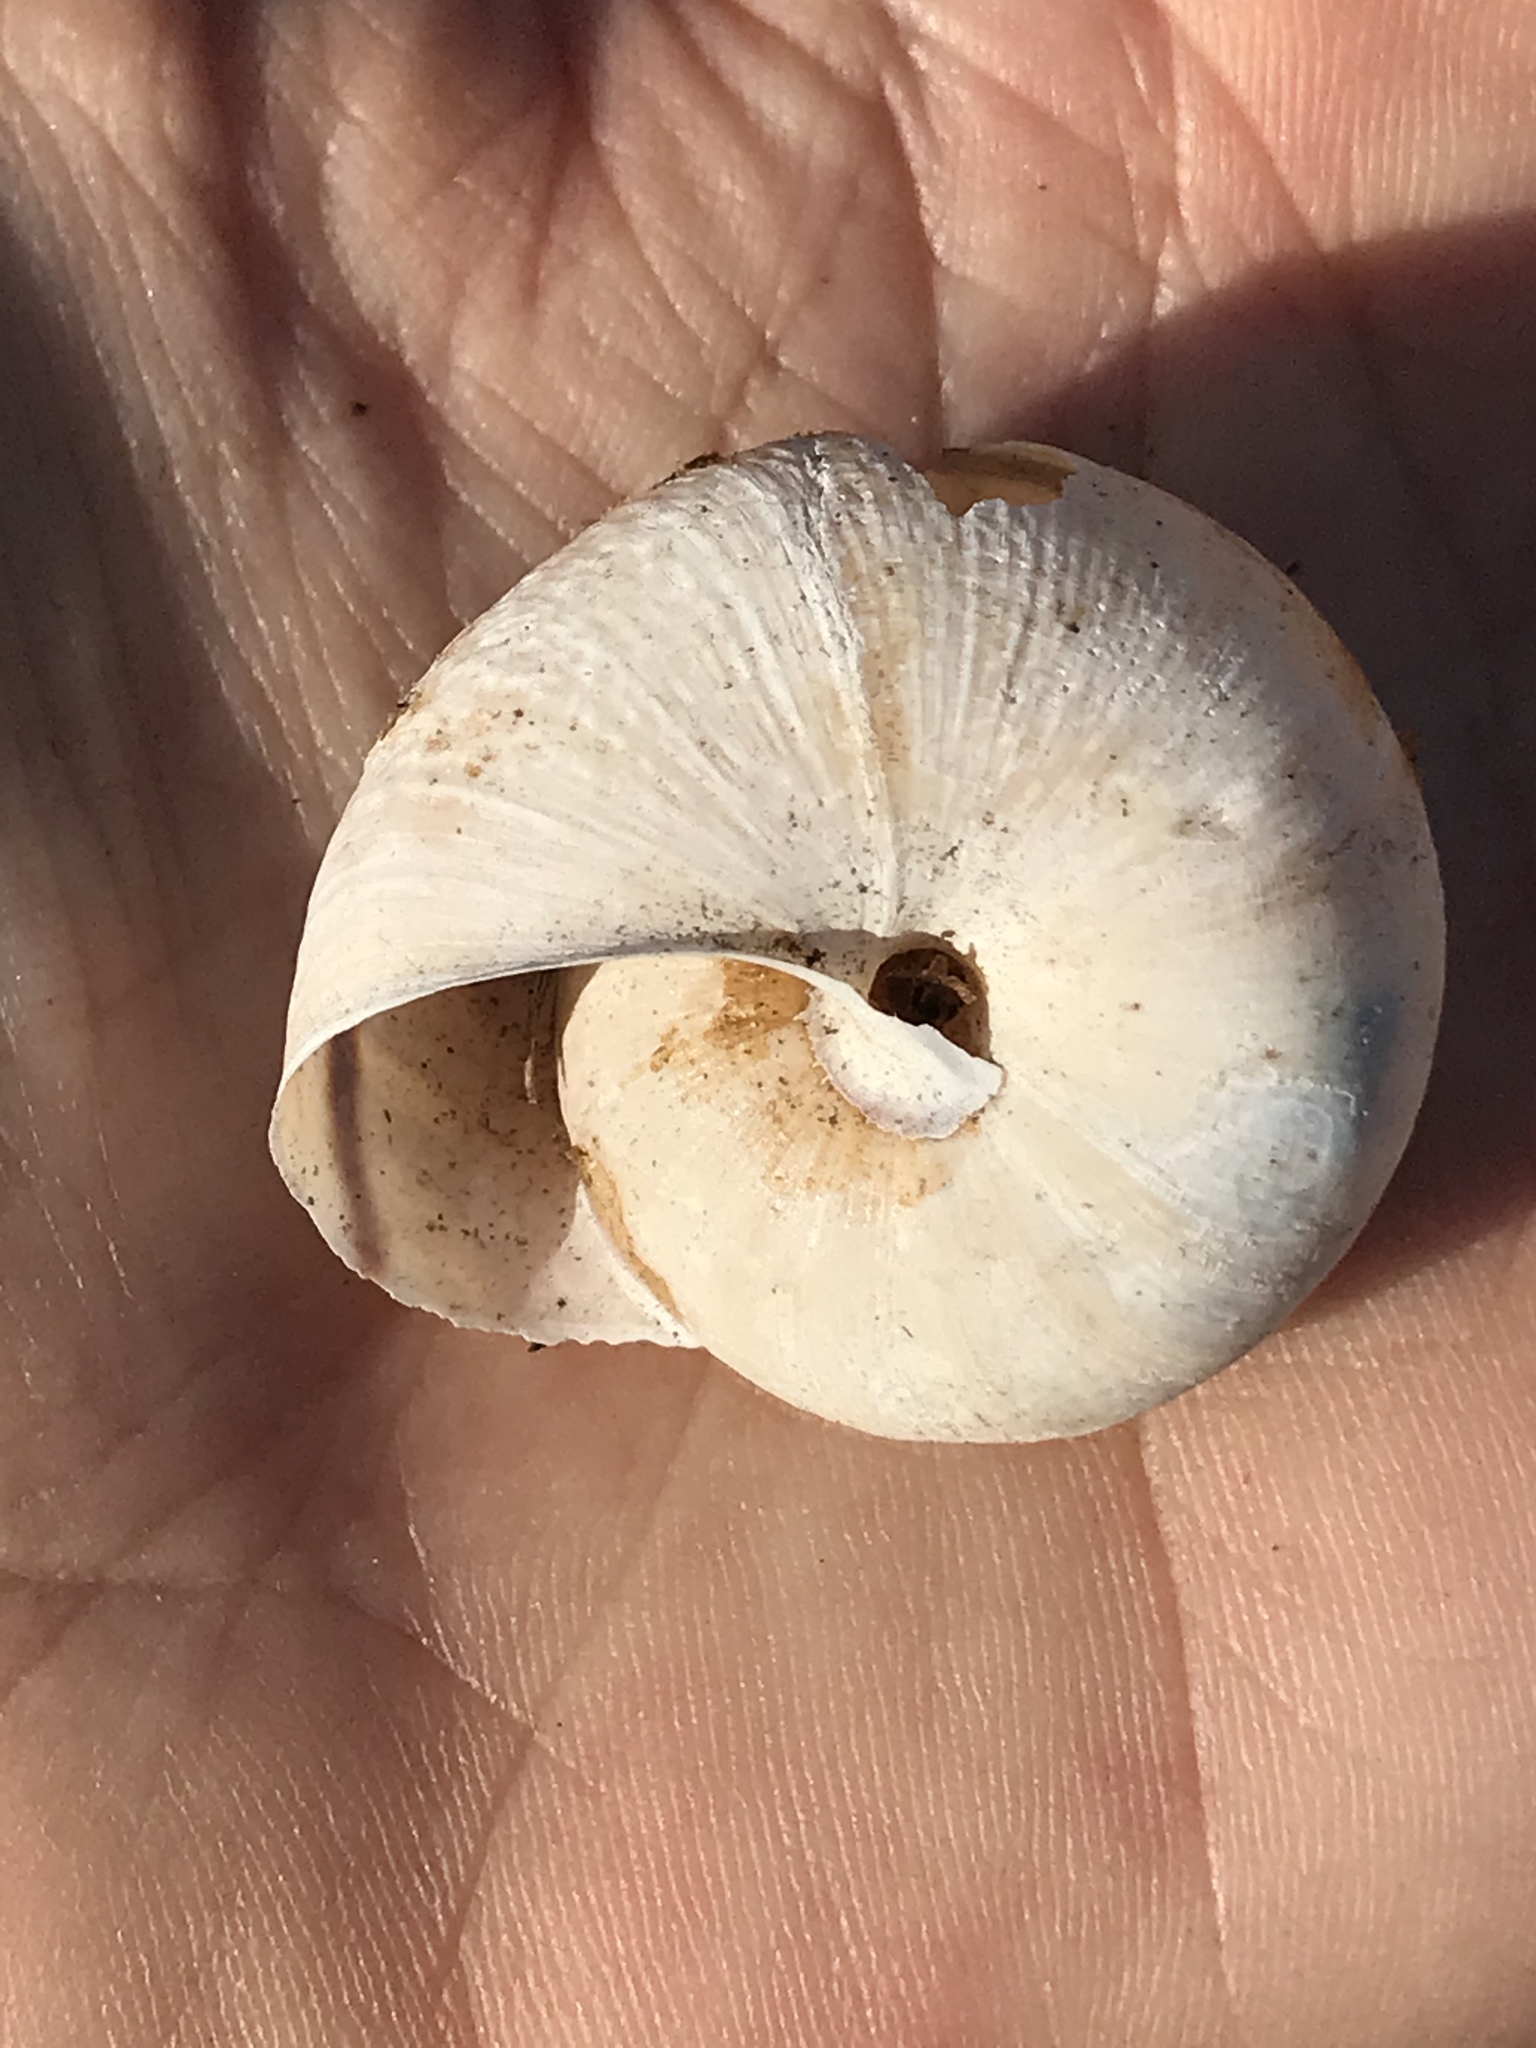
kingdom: Animalia
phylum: Mollusca
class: Gastropoda
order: Stylommatophora
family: Xanthonychidae
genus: Helminthoglypta
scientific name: Helminthoglypta arrosa
